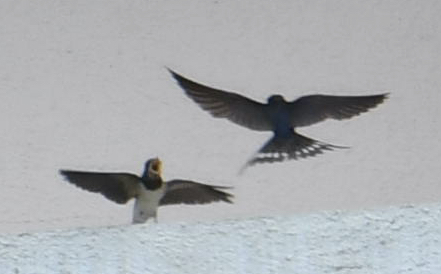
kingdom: Animalia
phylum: Chordata
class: Aves
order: Passeriformes
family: Hirundinidae
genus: Hirundo
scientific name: Hirundo rustica
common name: Barn swallow
